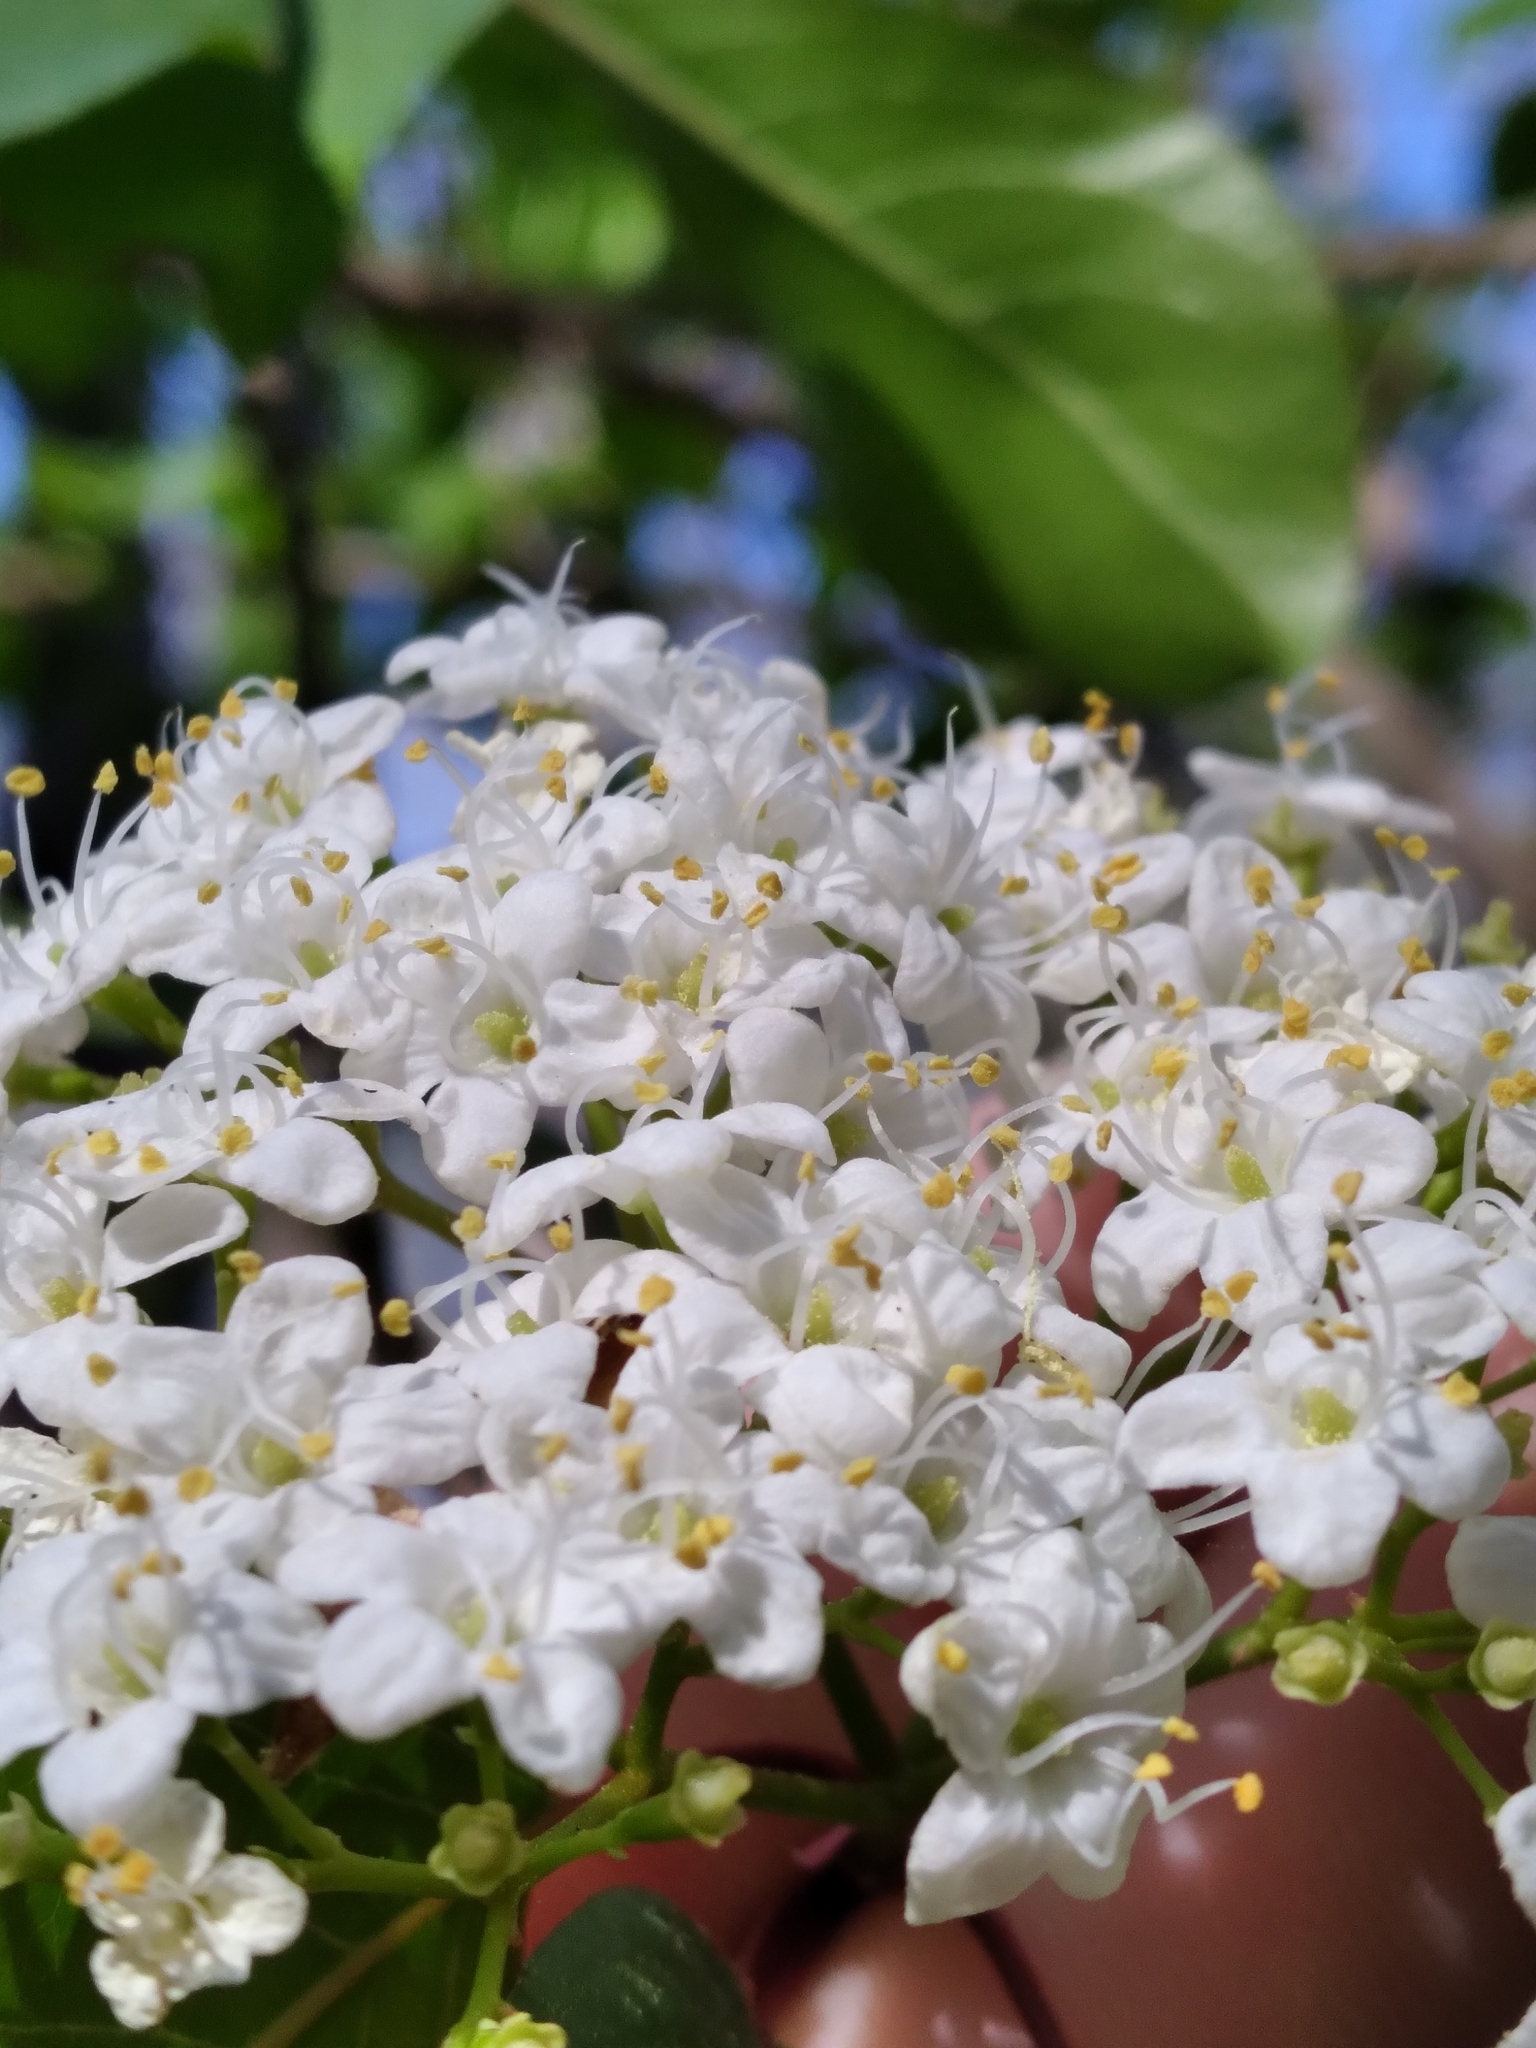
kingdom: Plantae
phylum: Tracheophyta
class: Magnoliopsida
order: Dipsacales
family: Viburnaceae
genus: Viburnum
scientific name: Viburnum prunifolium
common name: Black haw
